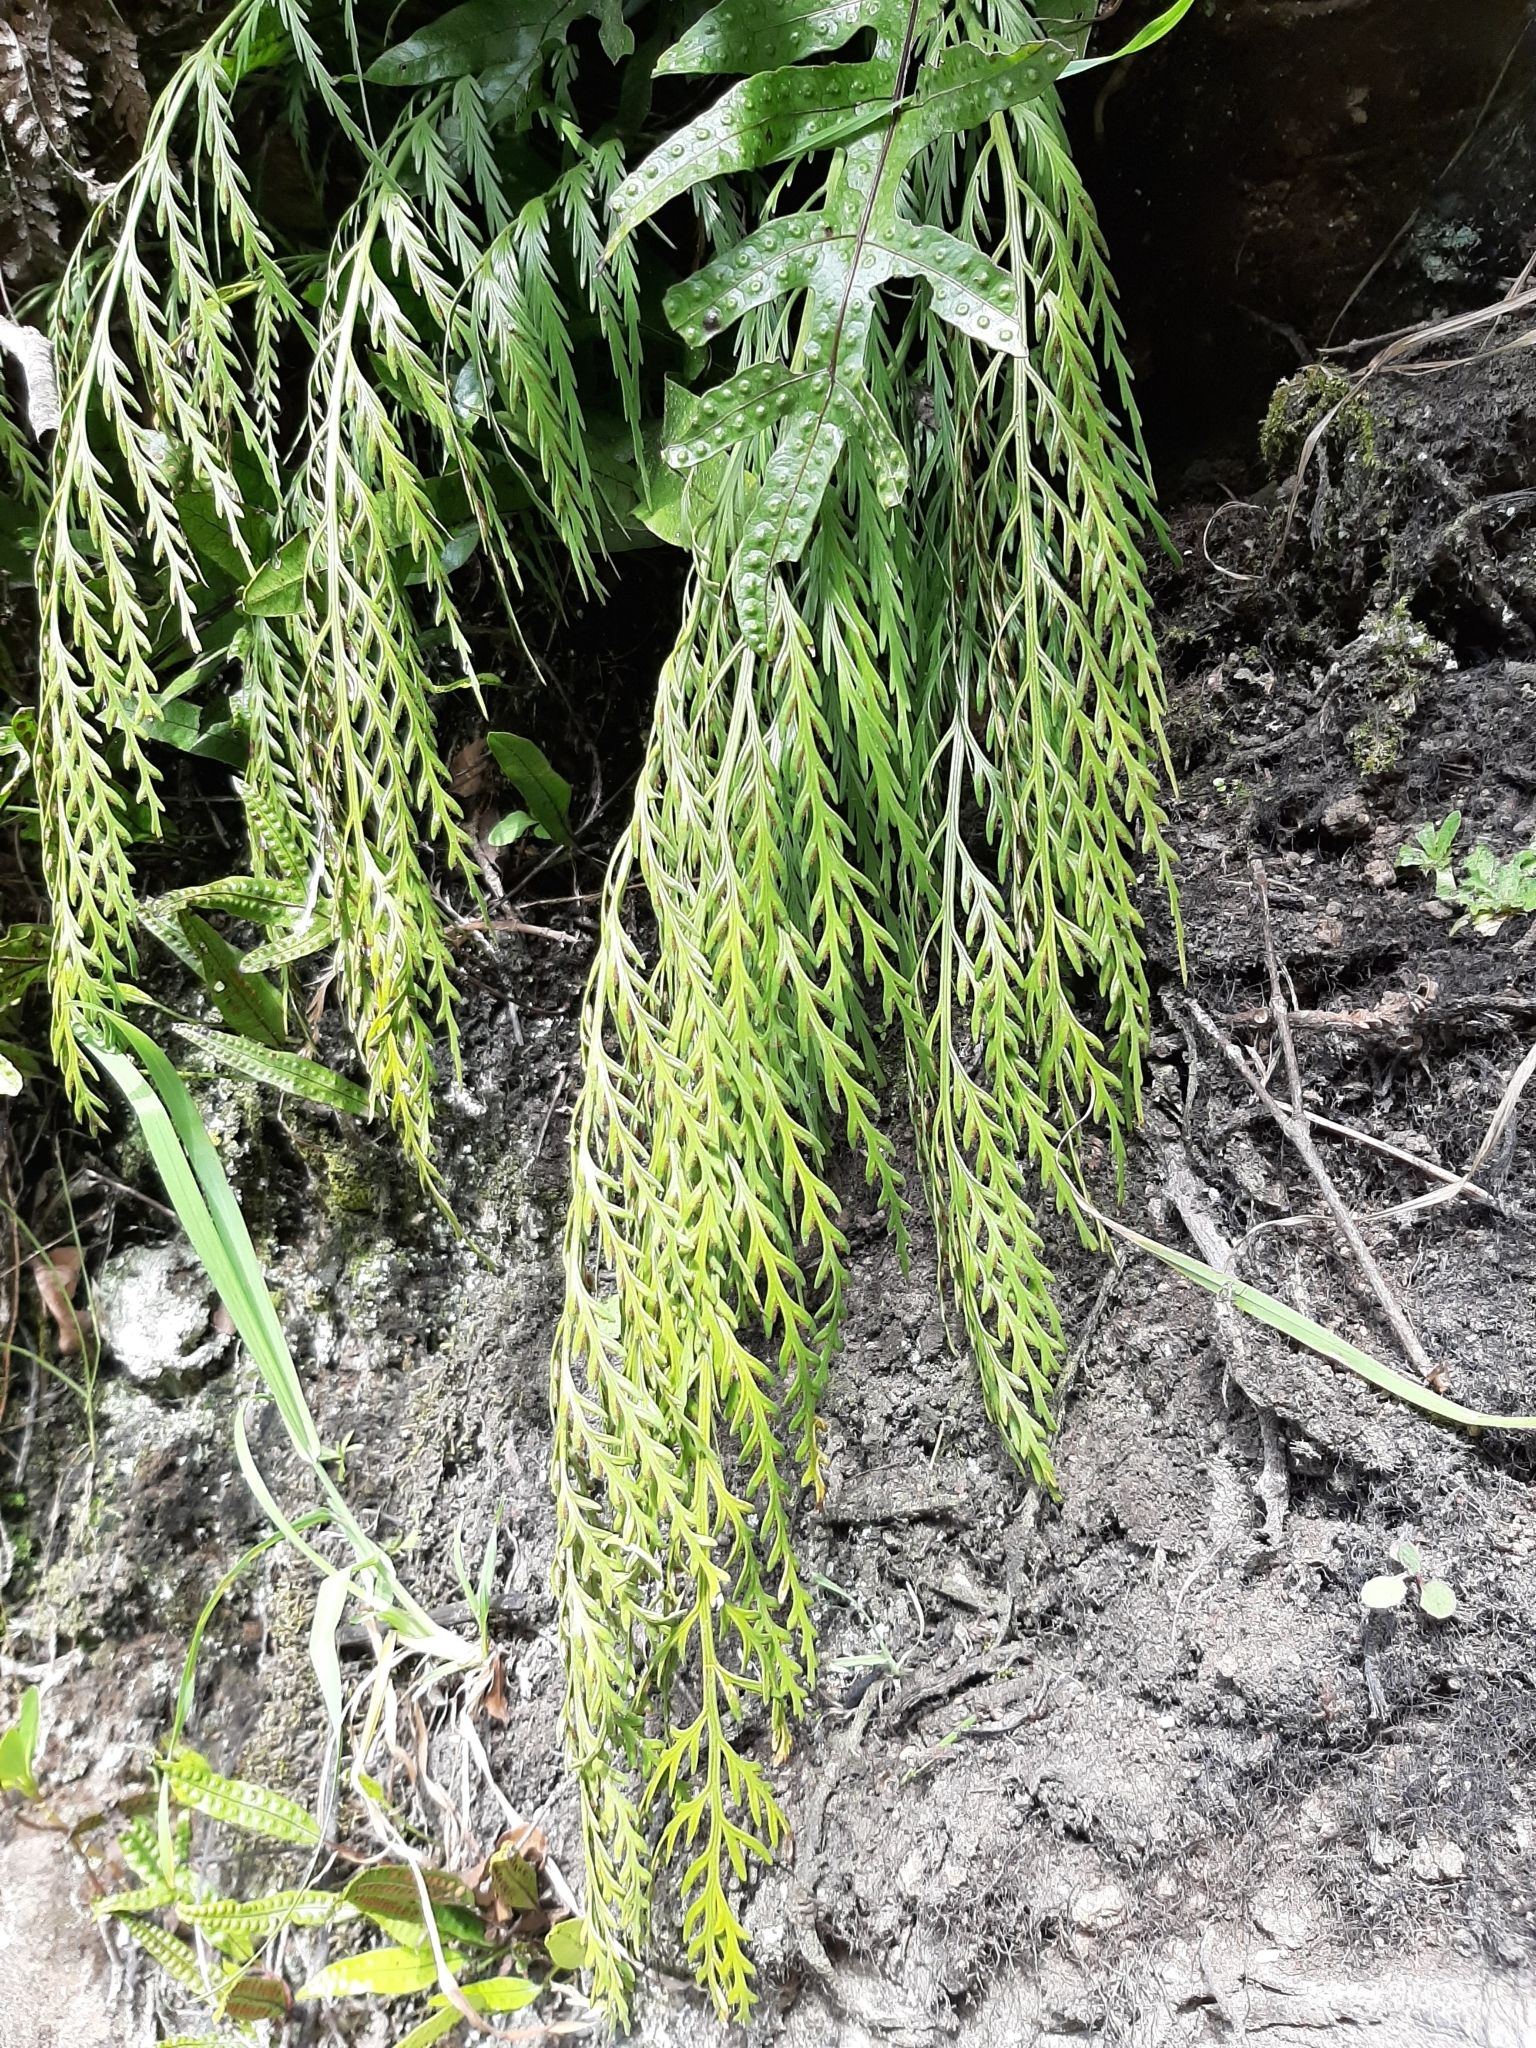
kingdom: Plantae
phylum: Tracheophyta
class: Polypodiopsida
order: Polypodiales
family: Aspleniaceae
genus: Asplenium
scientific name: Asplenium flaccidum
